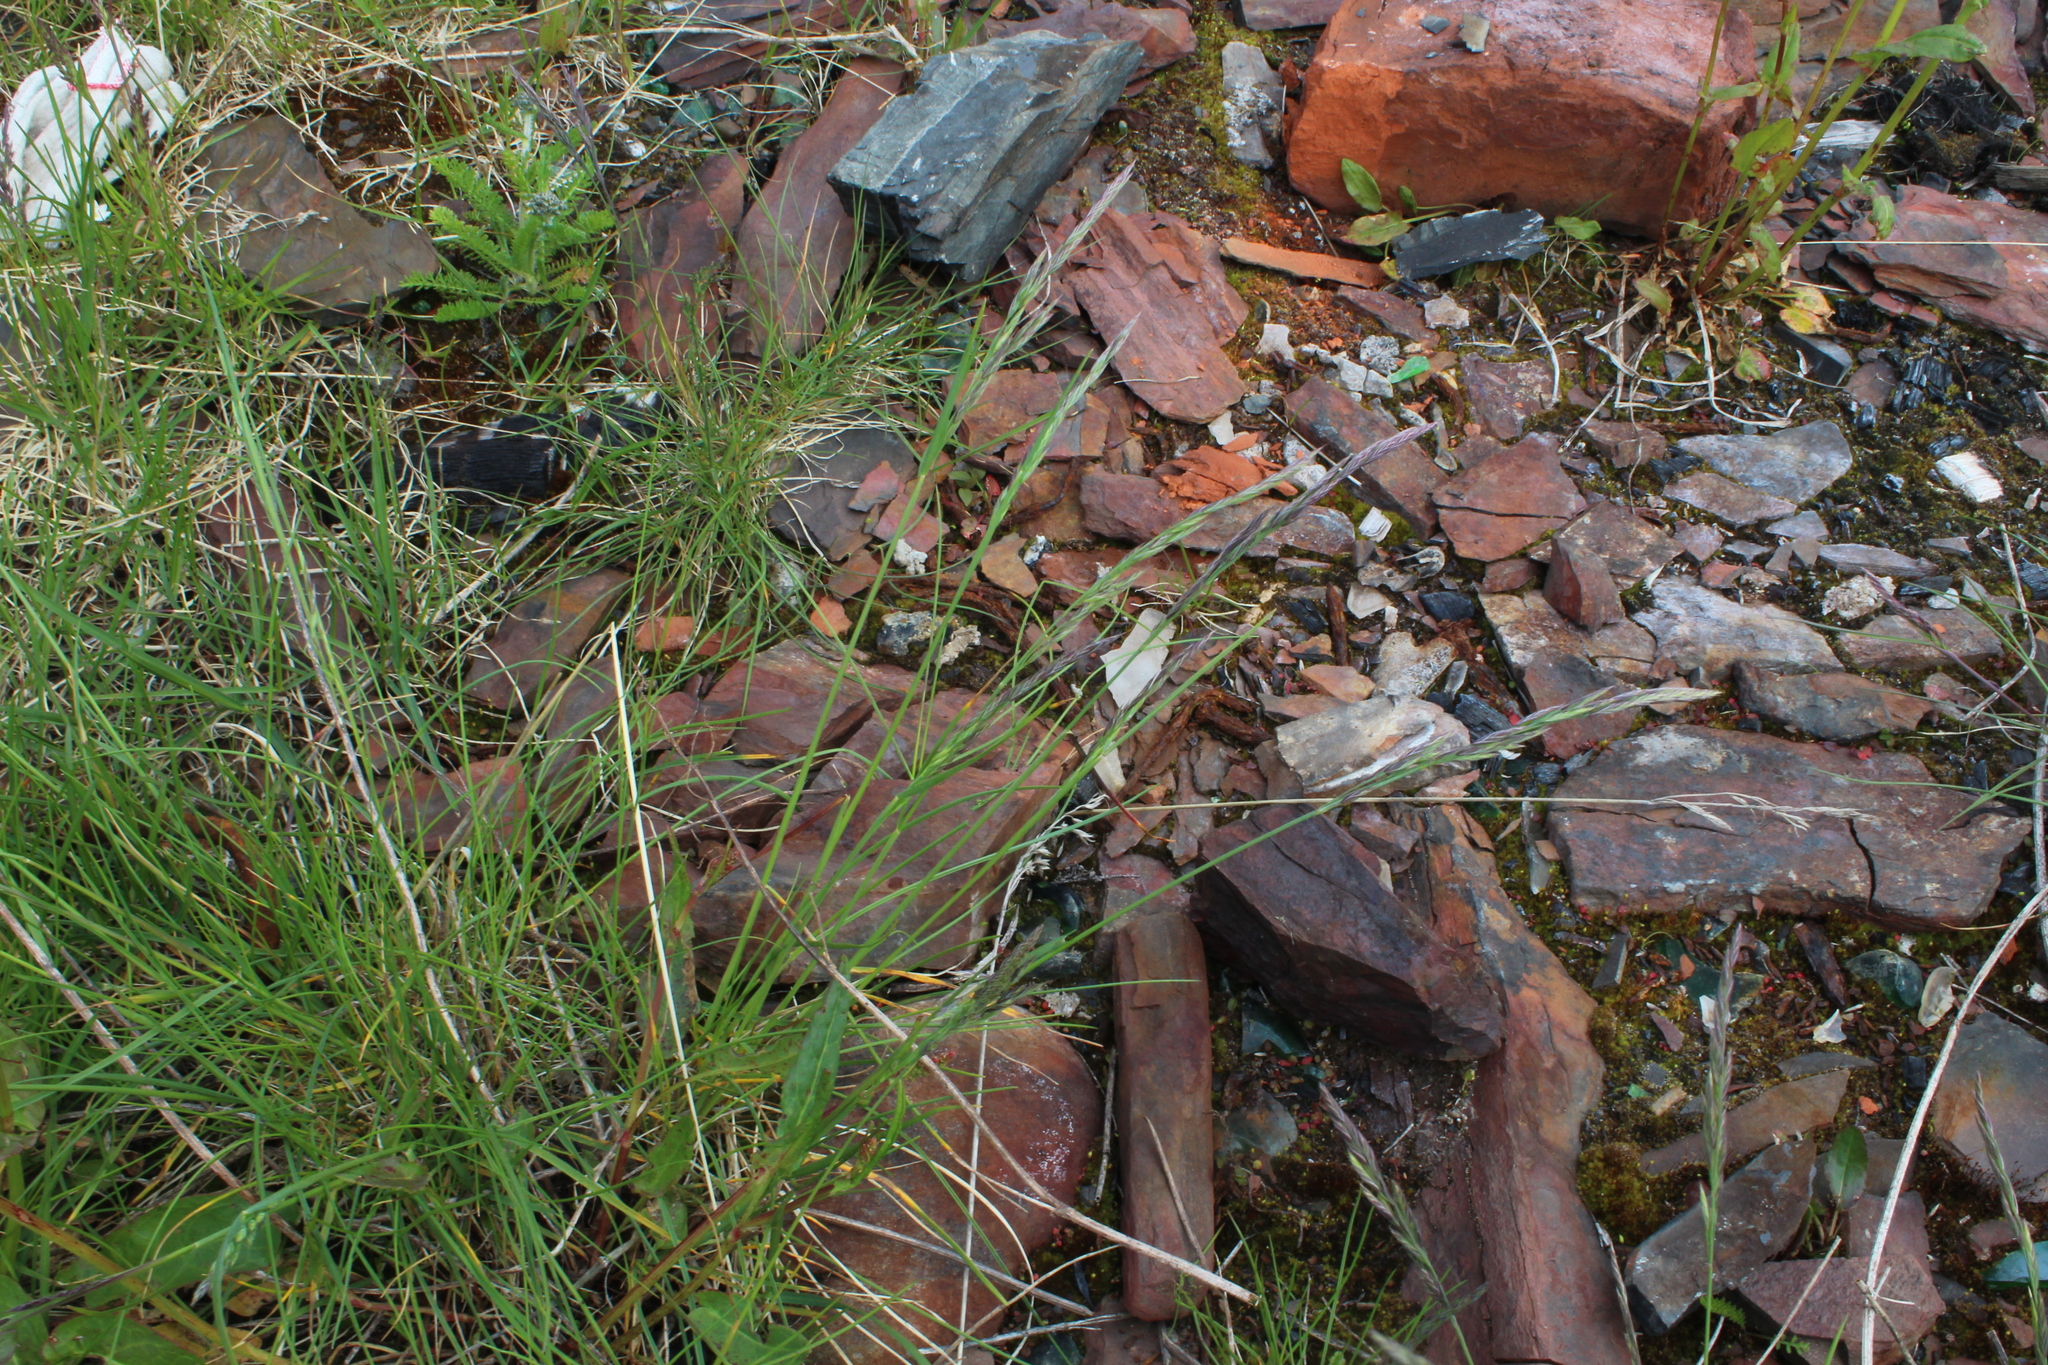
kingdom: Plantae
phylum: Tracheophyta
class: Liliopsida
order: Poales
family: Poaceae
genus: Festuca
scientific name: Festuca rubra
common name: Red fescue
